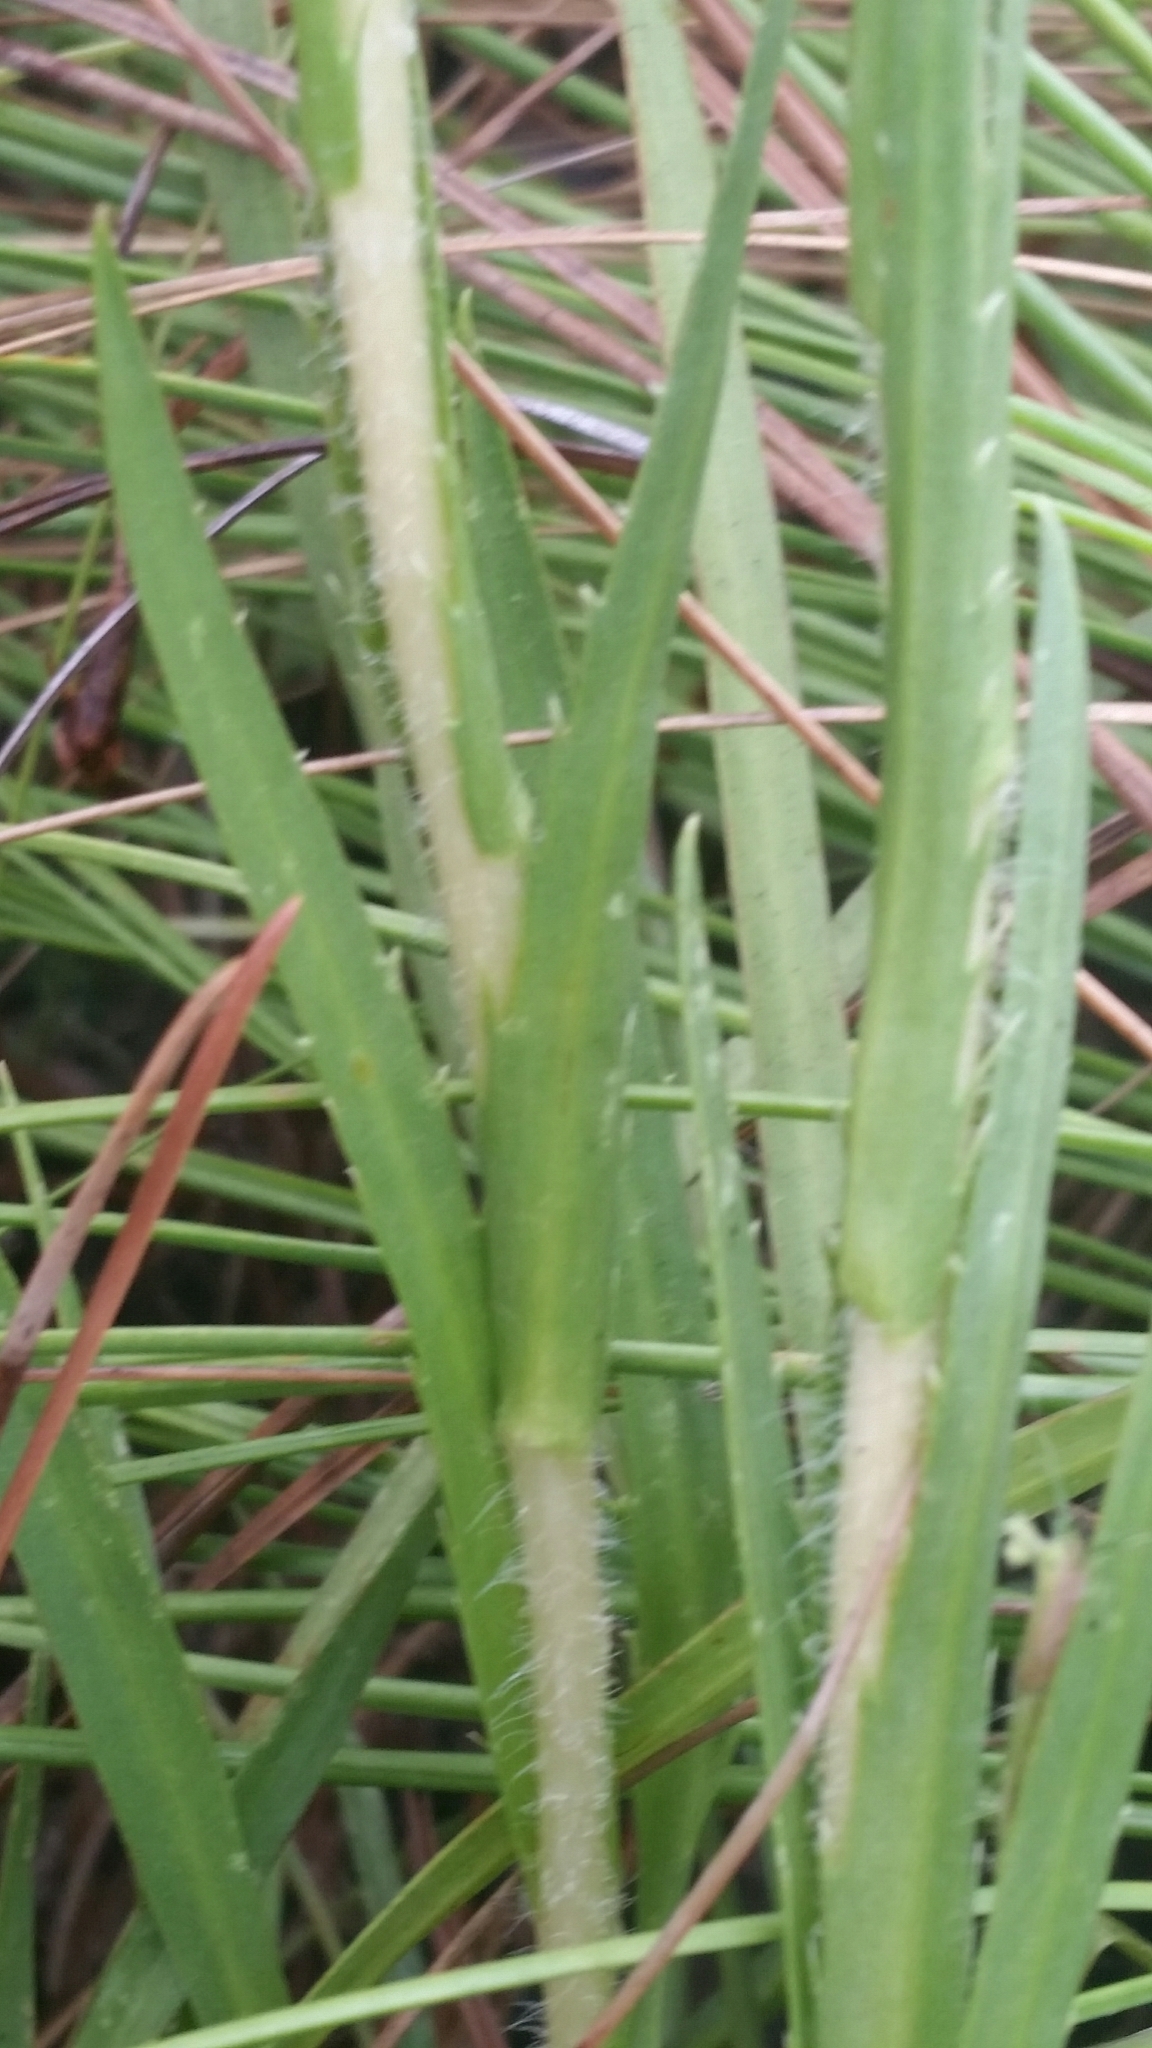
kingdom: Plantae
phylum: Tracheophyta
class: Magnoliopsida
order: Asterales
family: Asteraceae
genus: Eurybia
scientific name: Eurybia eryngiifolia
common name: Thistle-leaf aster
